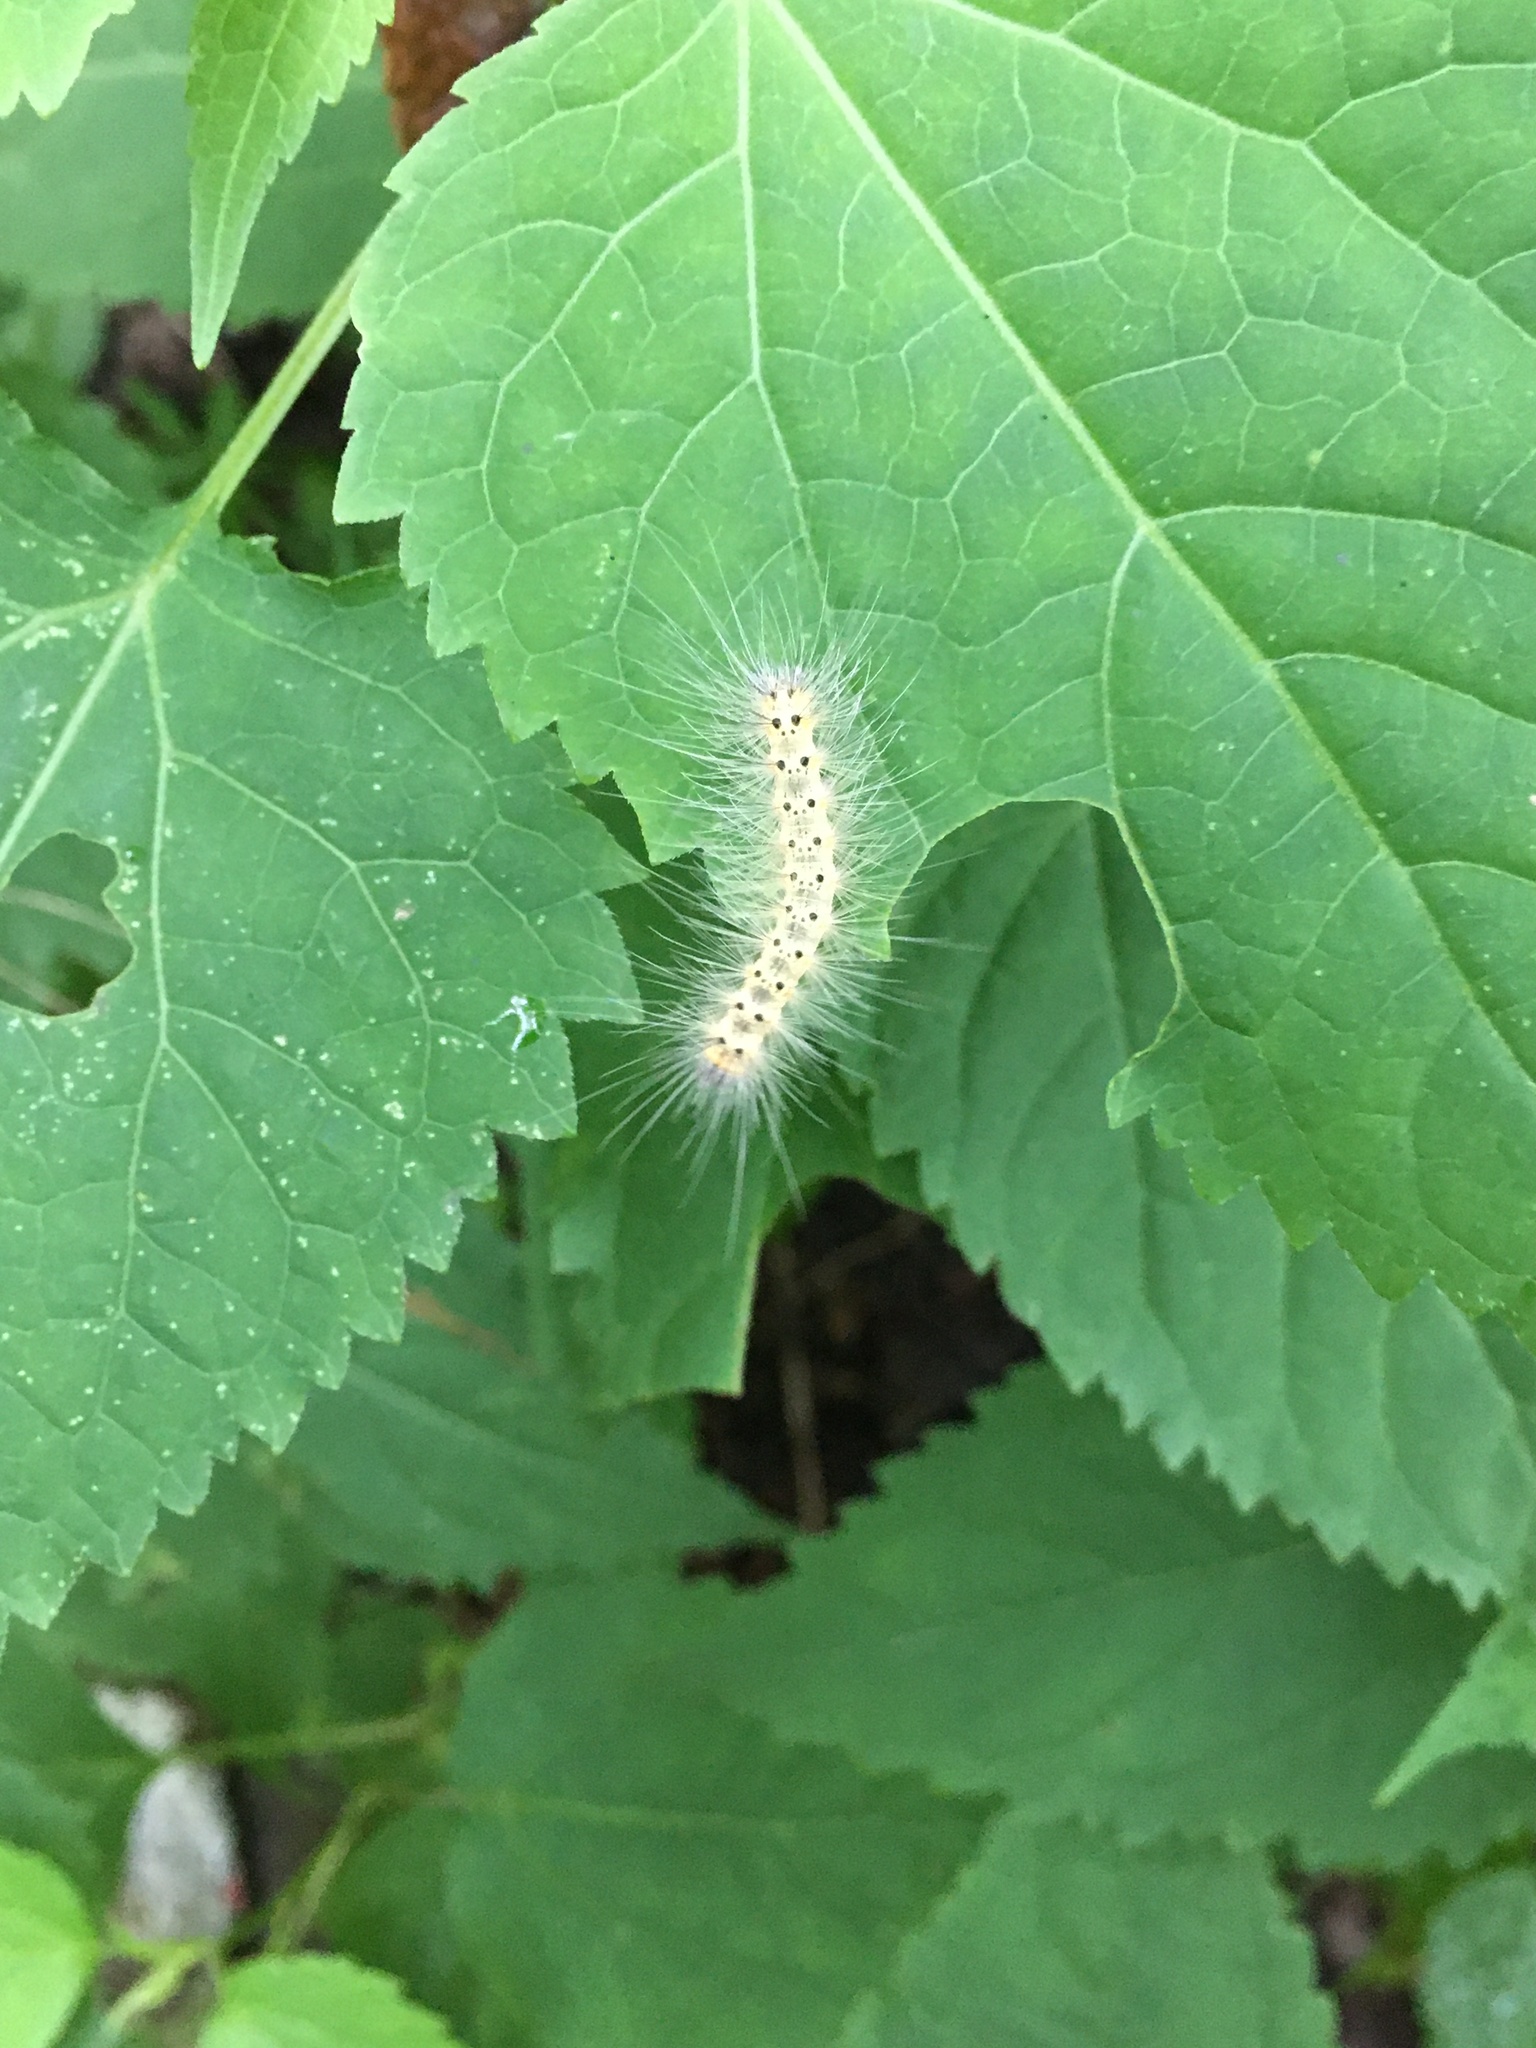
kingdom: Animalia
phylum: Arthropoda
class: Insecta
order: Lepidoptera
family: Erebidae
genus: Hyphantria
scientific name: Hyphantria cunea
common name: American white moth
